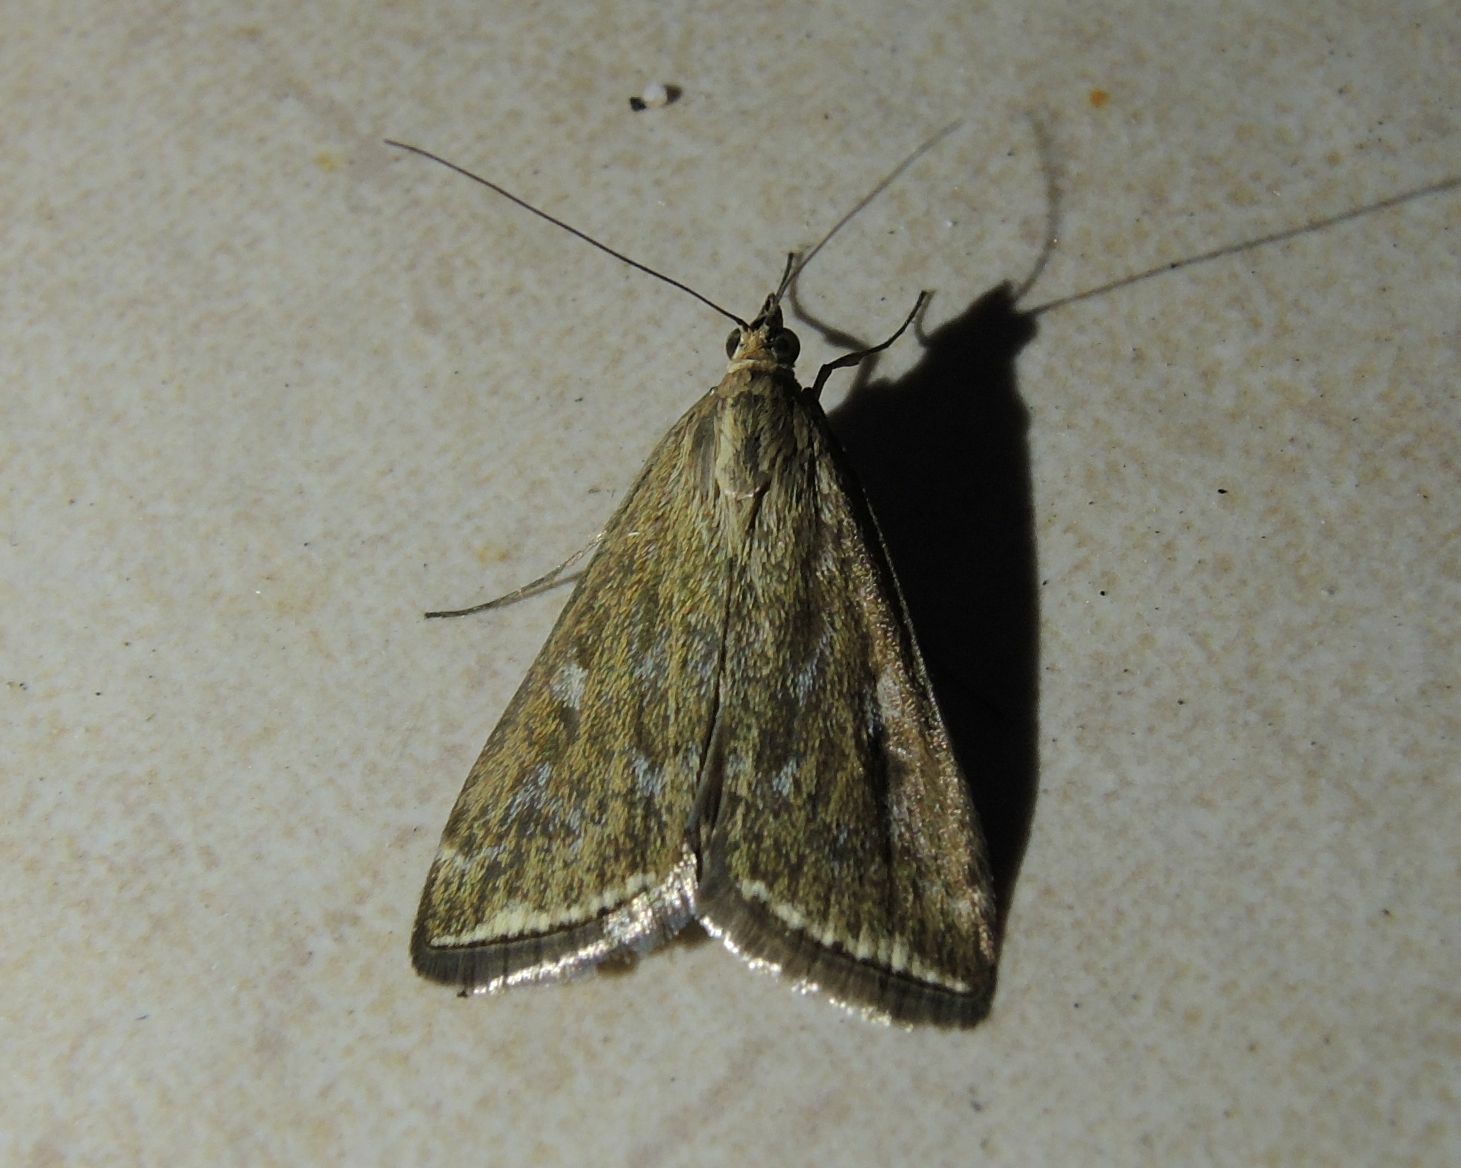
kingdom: Animalia
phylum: Arthropoda
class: Insecta
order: Lepidoptera
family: Crambidae
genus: Loxostege
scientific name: Loxostege sticticalis
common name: Crambid moth
